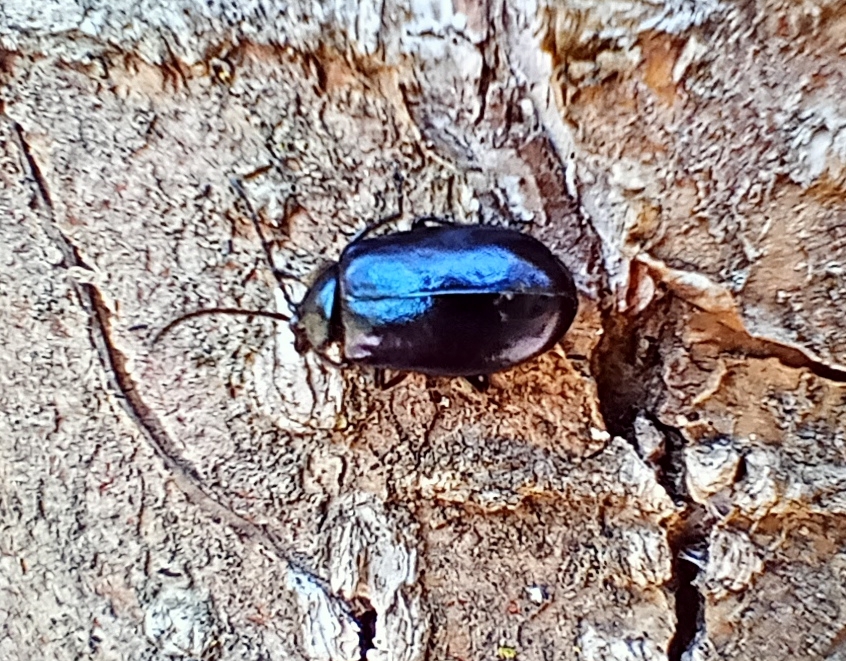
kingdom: Animalia
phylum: Arthropoda
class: Insecta
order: Coleoptera
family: Chrysomelidae
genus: Agelastica
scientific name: Agelastica alni
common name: Alder leaf beetle
